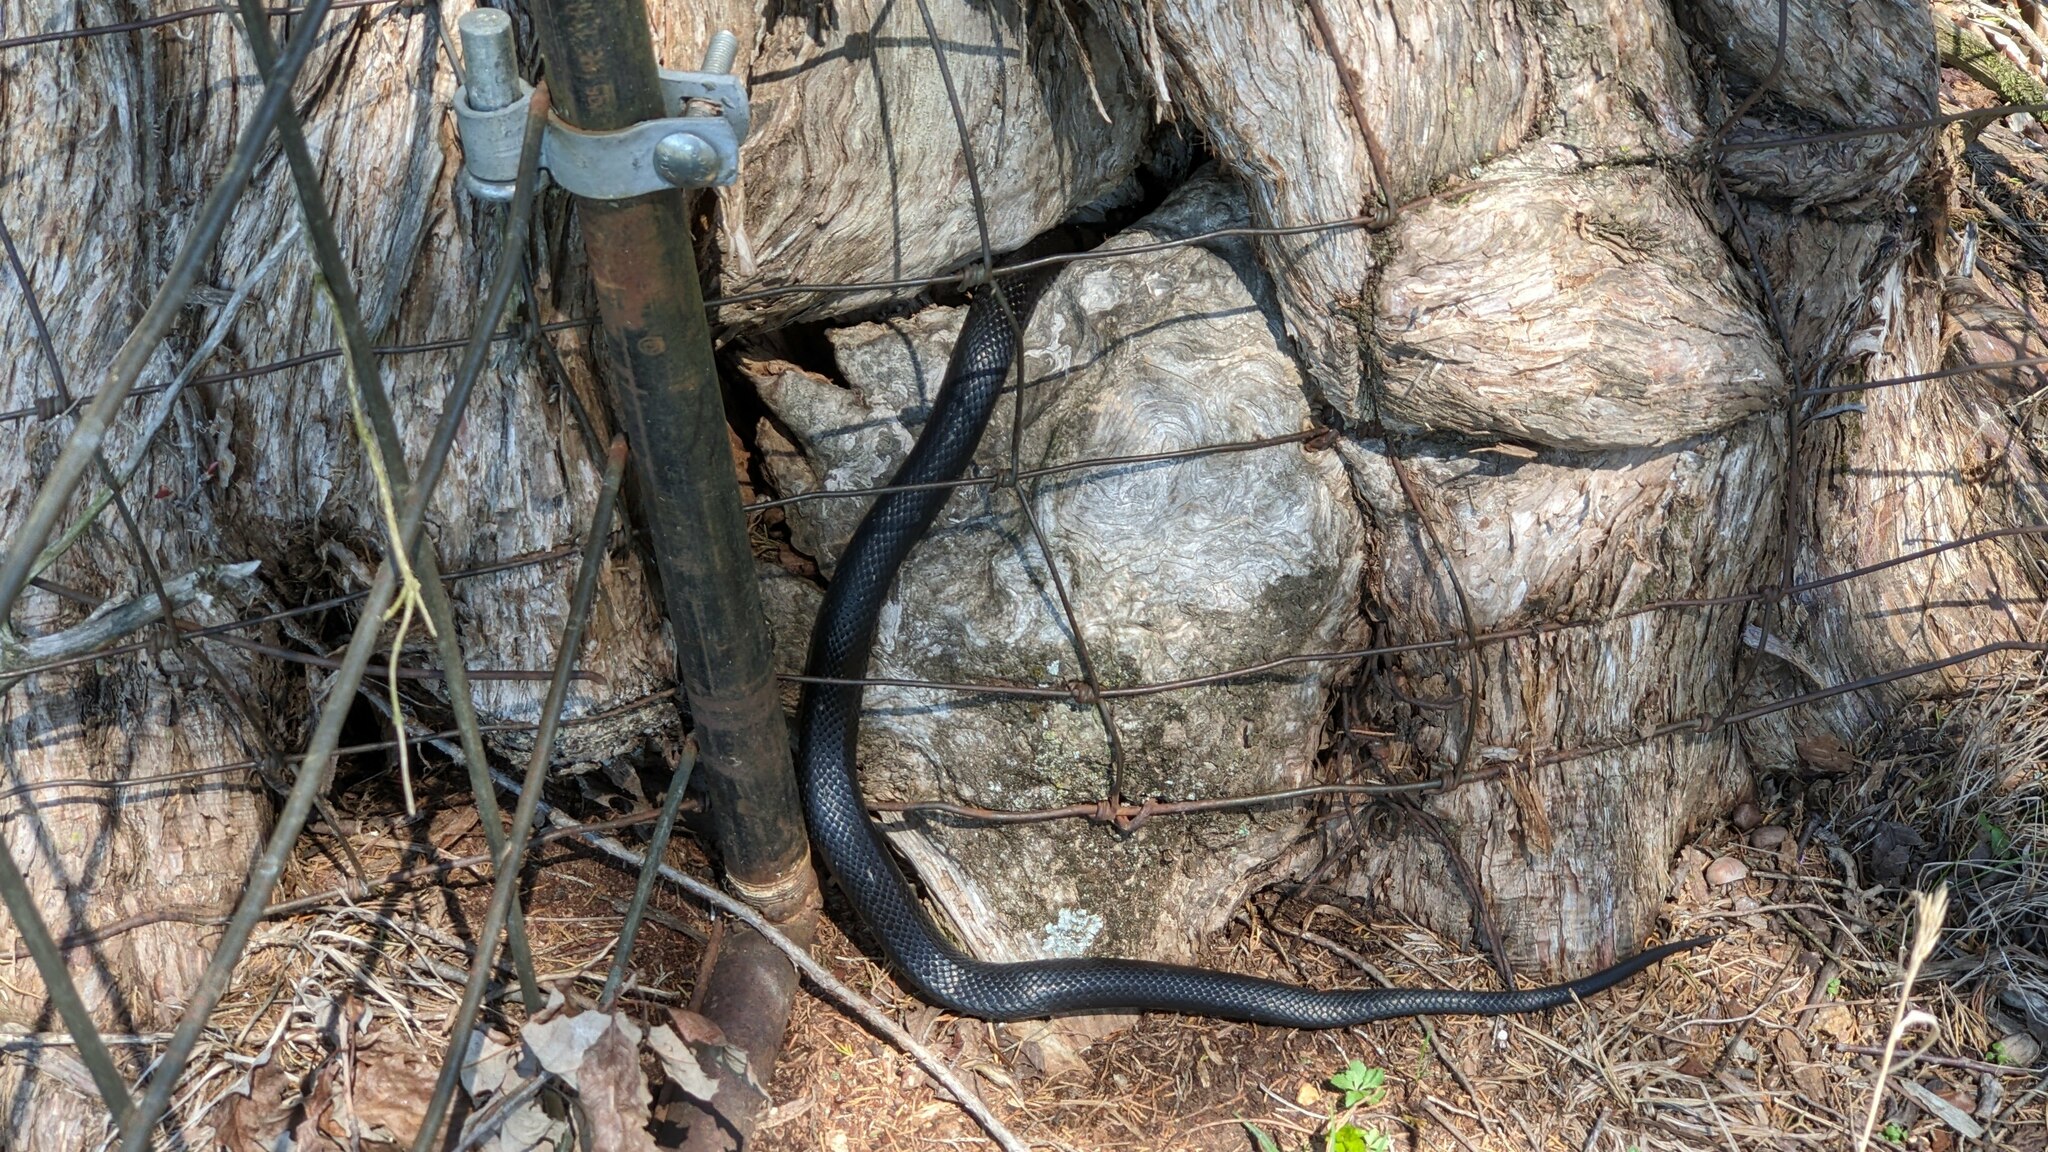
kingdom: Animalia
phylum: Chordata
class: Squamata
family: Colubridae
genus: Pantherophis
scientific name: Pantherophis obsoletus
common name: Black rat snake
